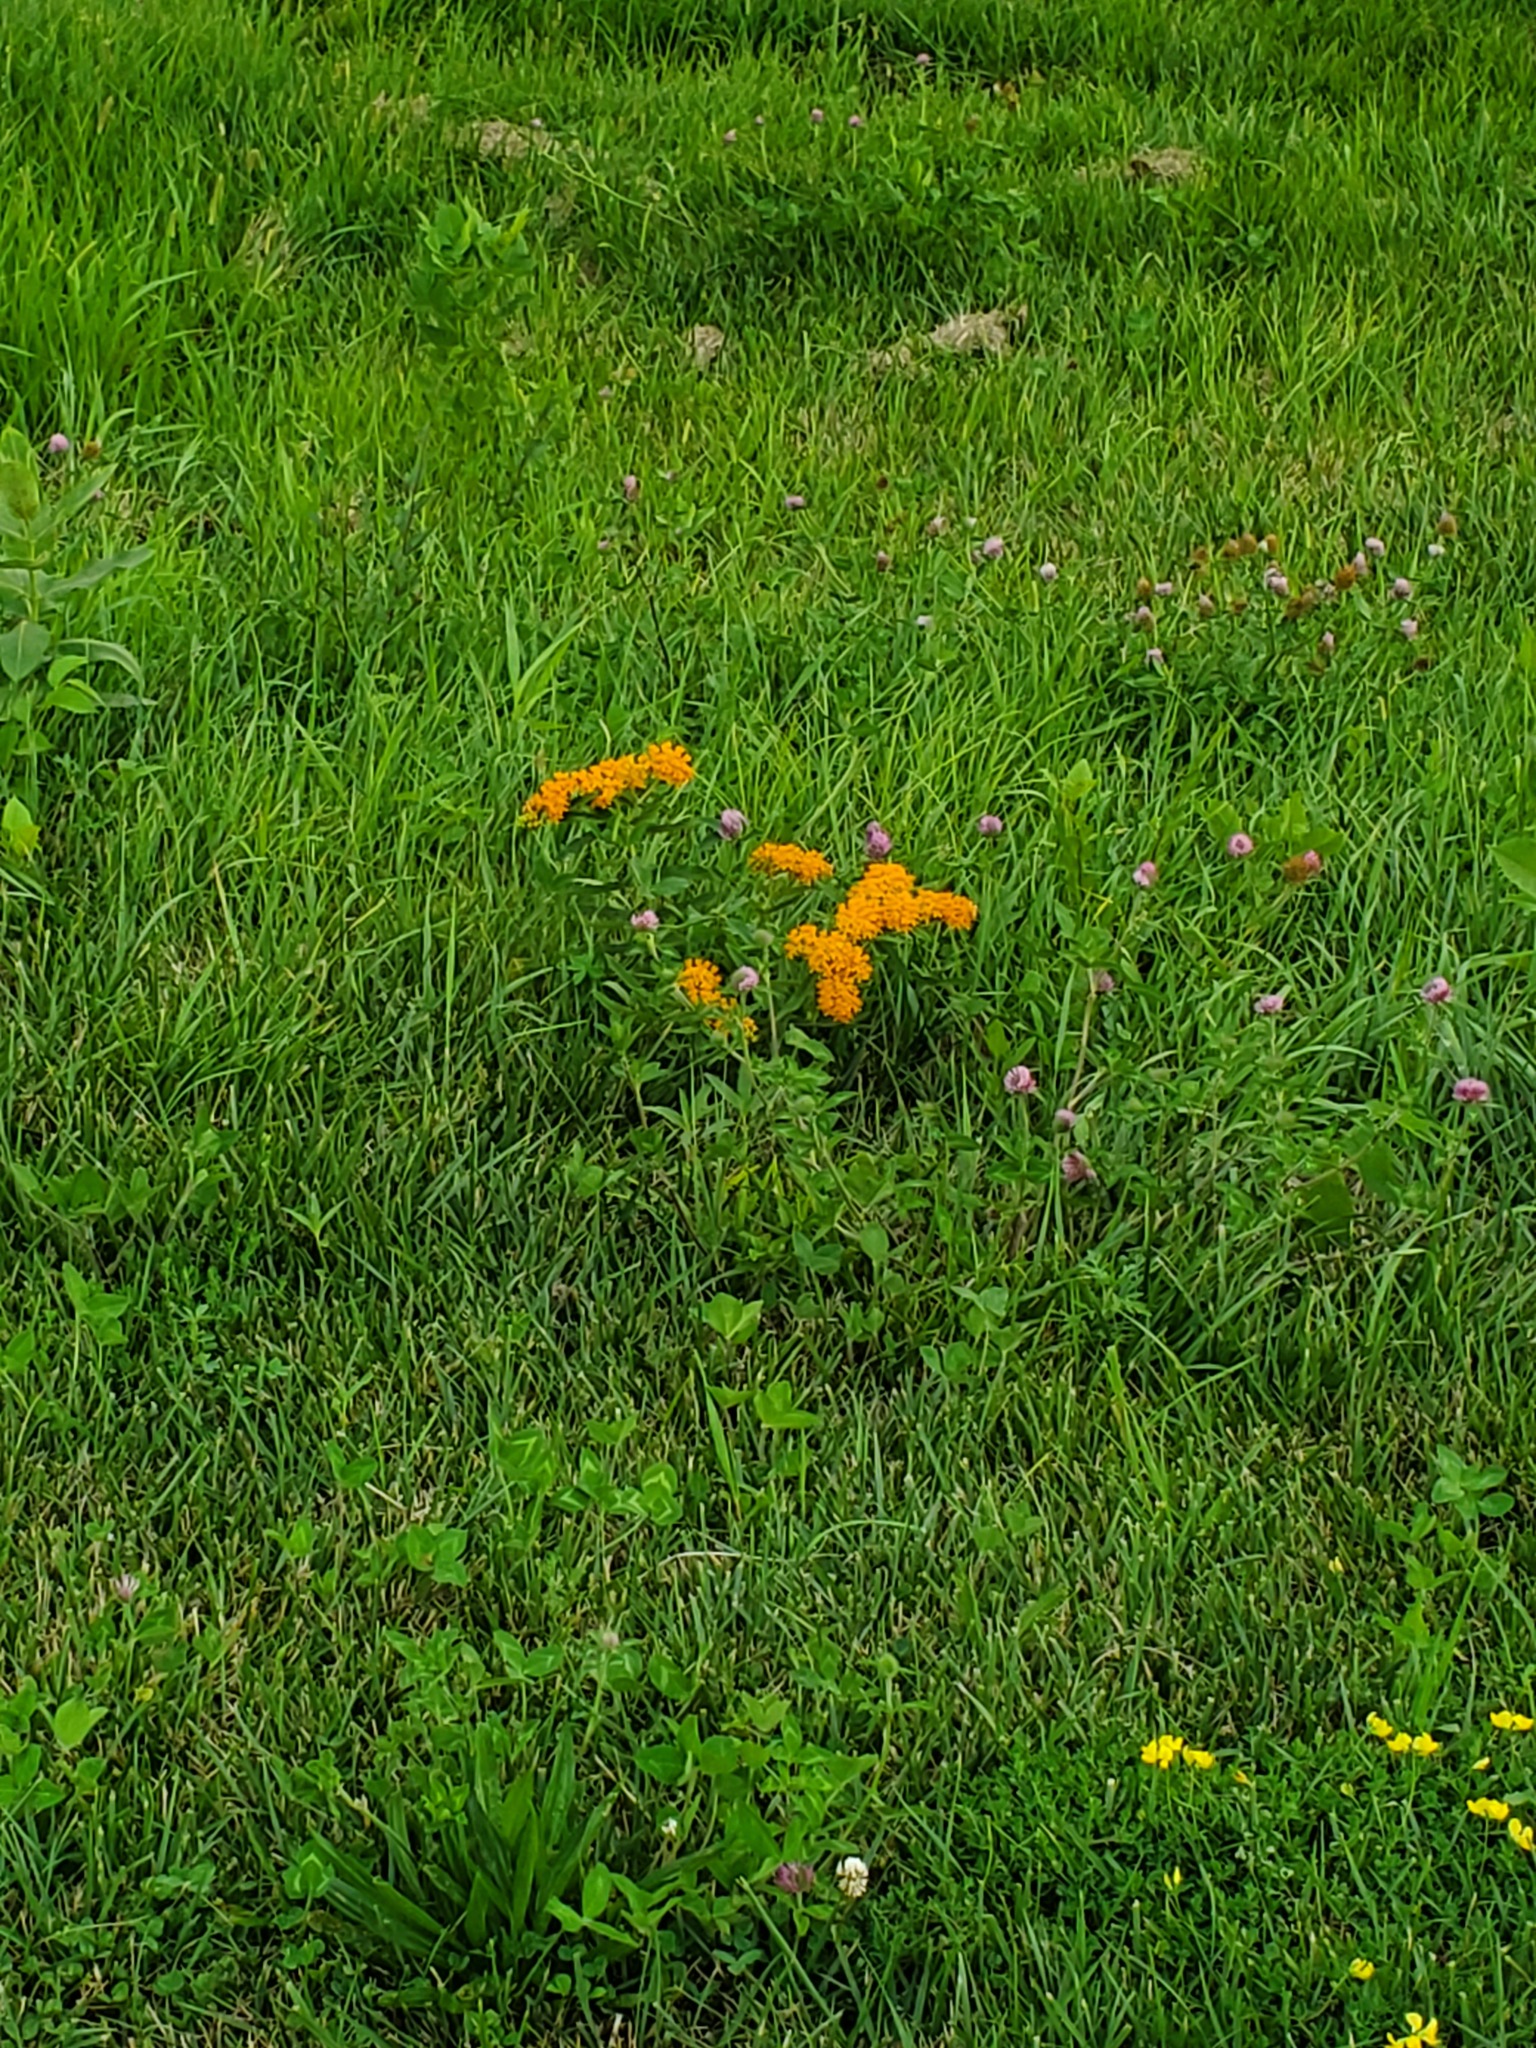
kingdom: Plantae
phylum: Tracheophyta
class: Magnoliopsida
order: Gentianales
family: Apocynaceae
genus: Asclepias
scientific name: Asclepias tuberosa
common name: Butterfly milkweed
